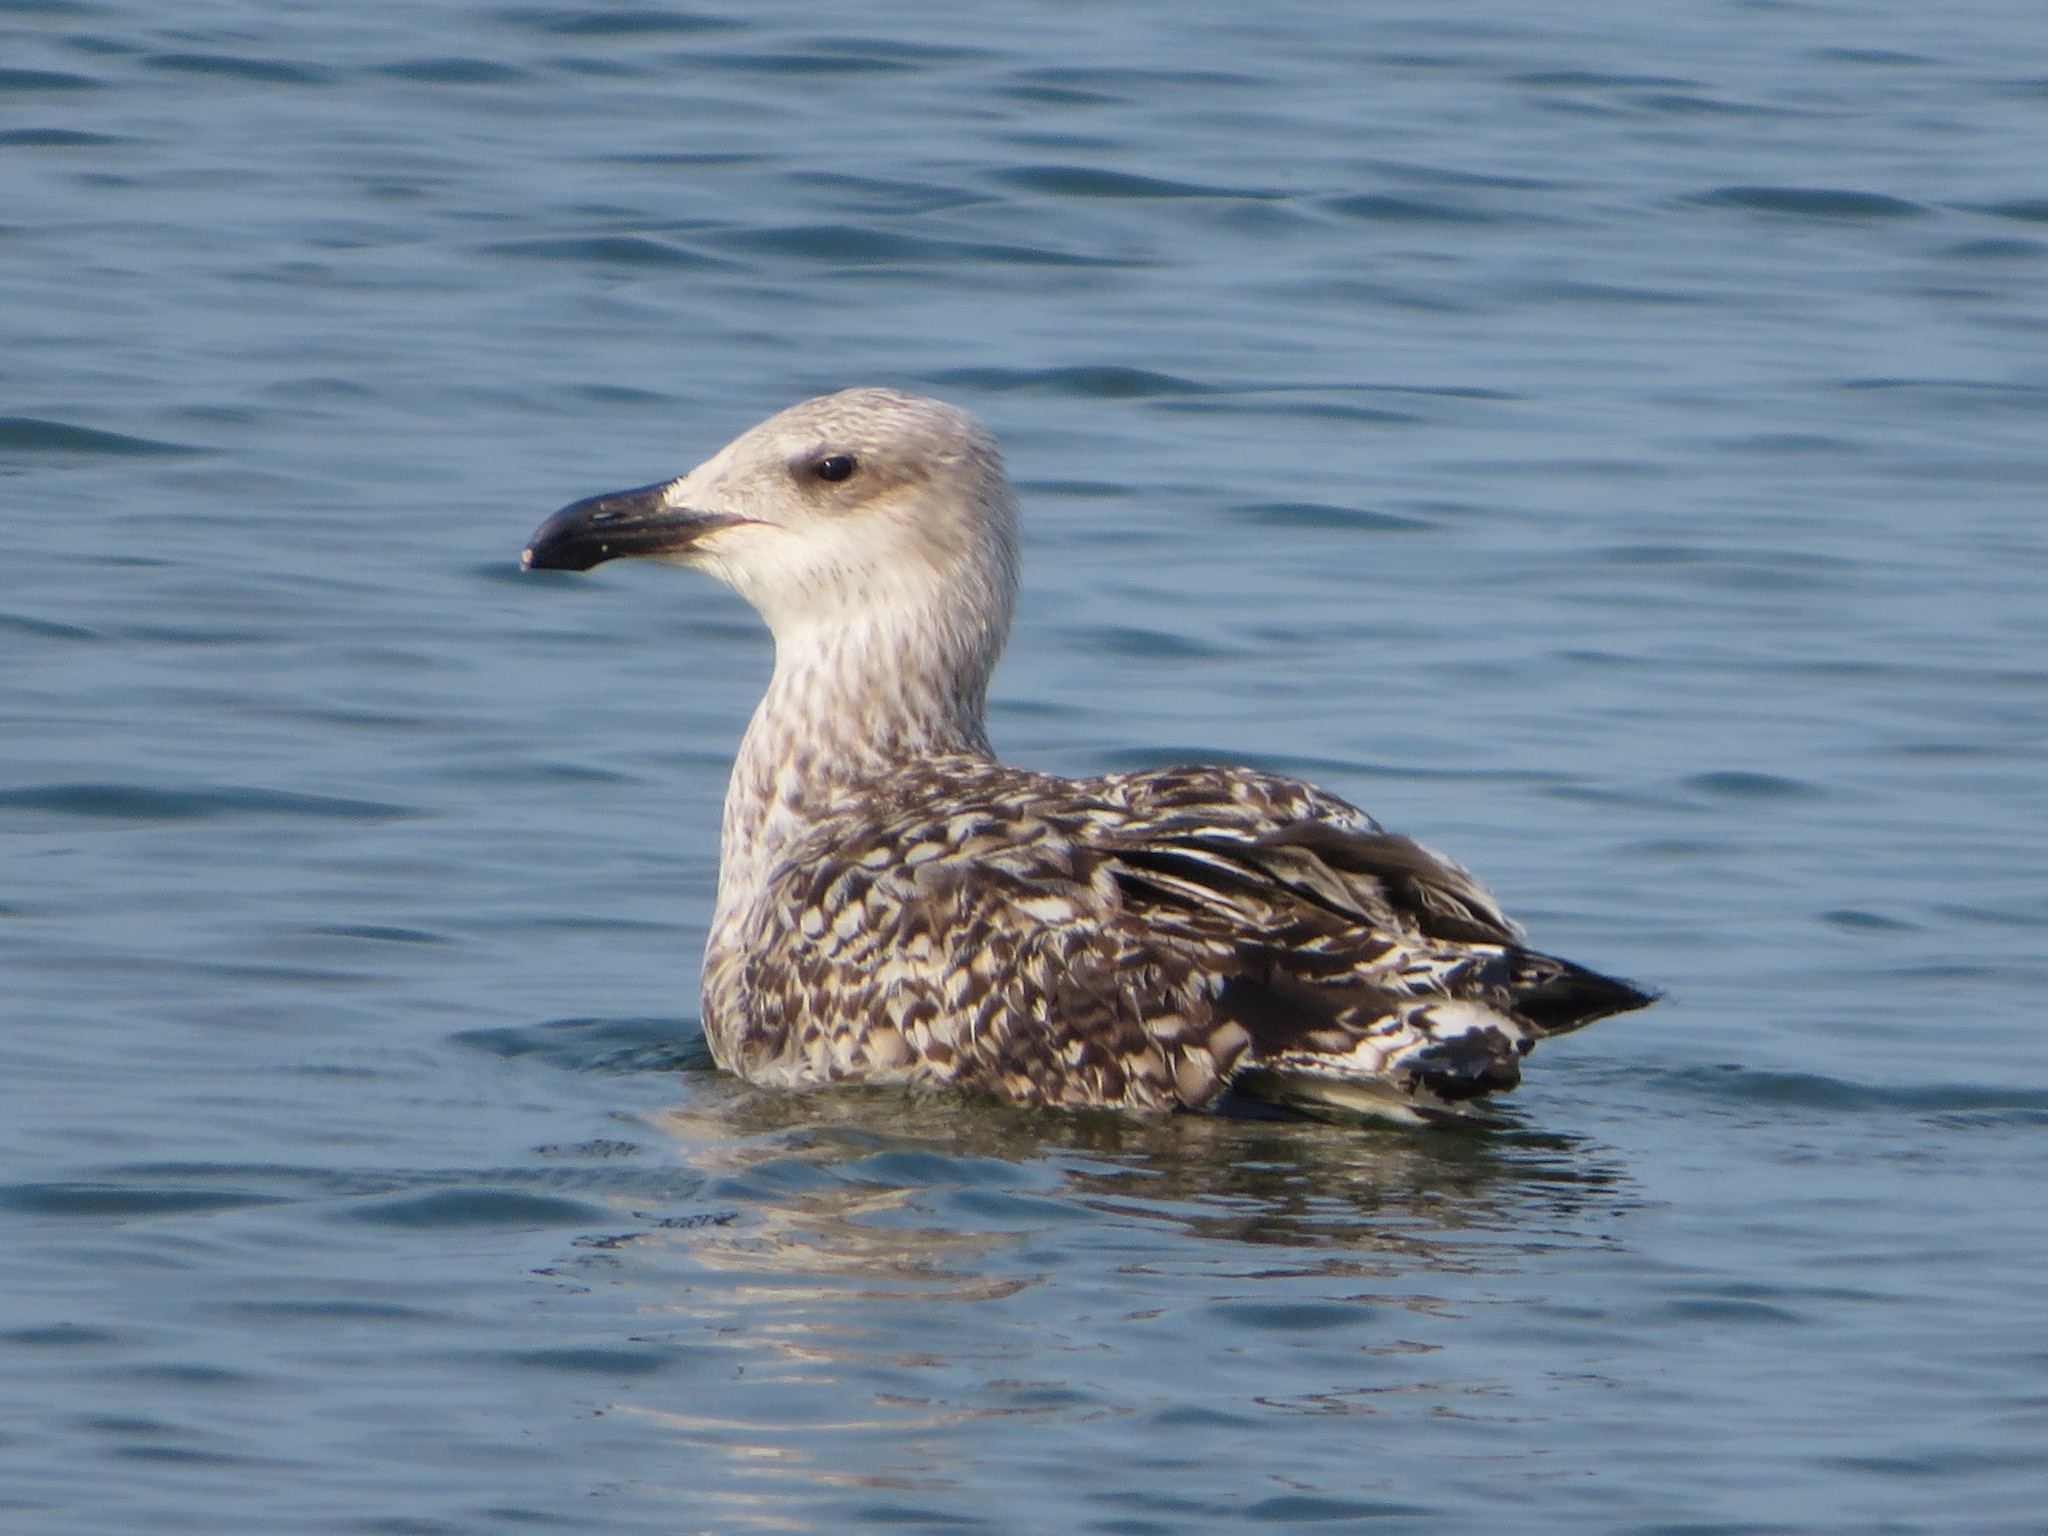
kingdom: Animalia
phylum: Chordata
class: Aves
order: Charadriiformes
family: Laridae
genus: Larus
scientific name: Larus marinus
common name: Great black-backed gull
